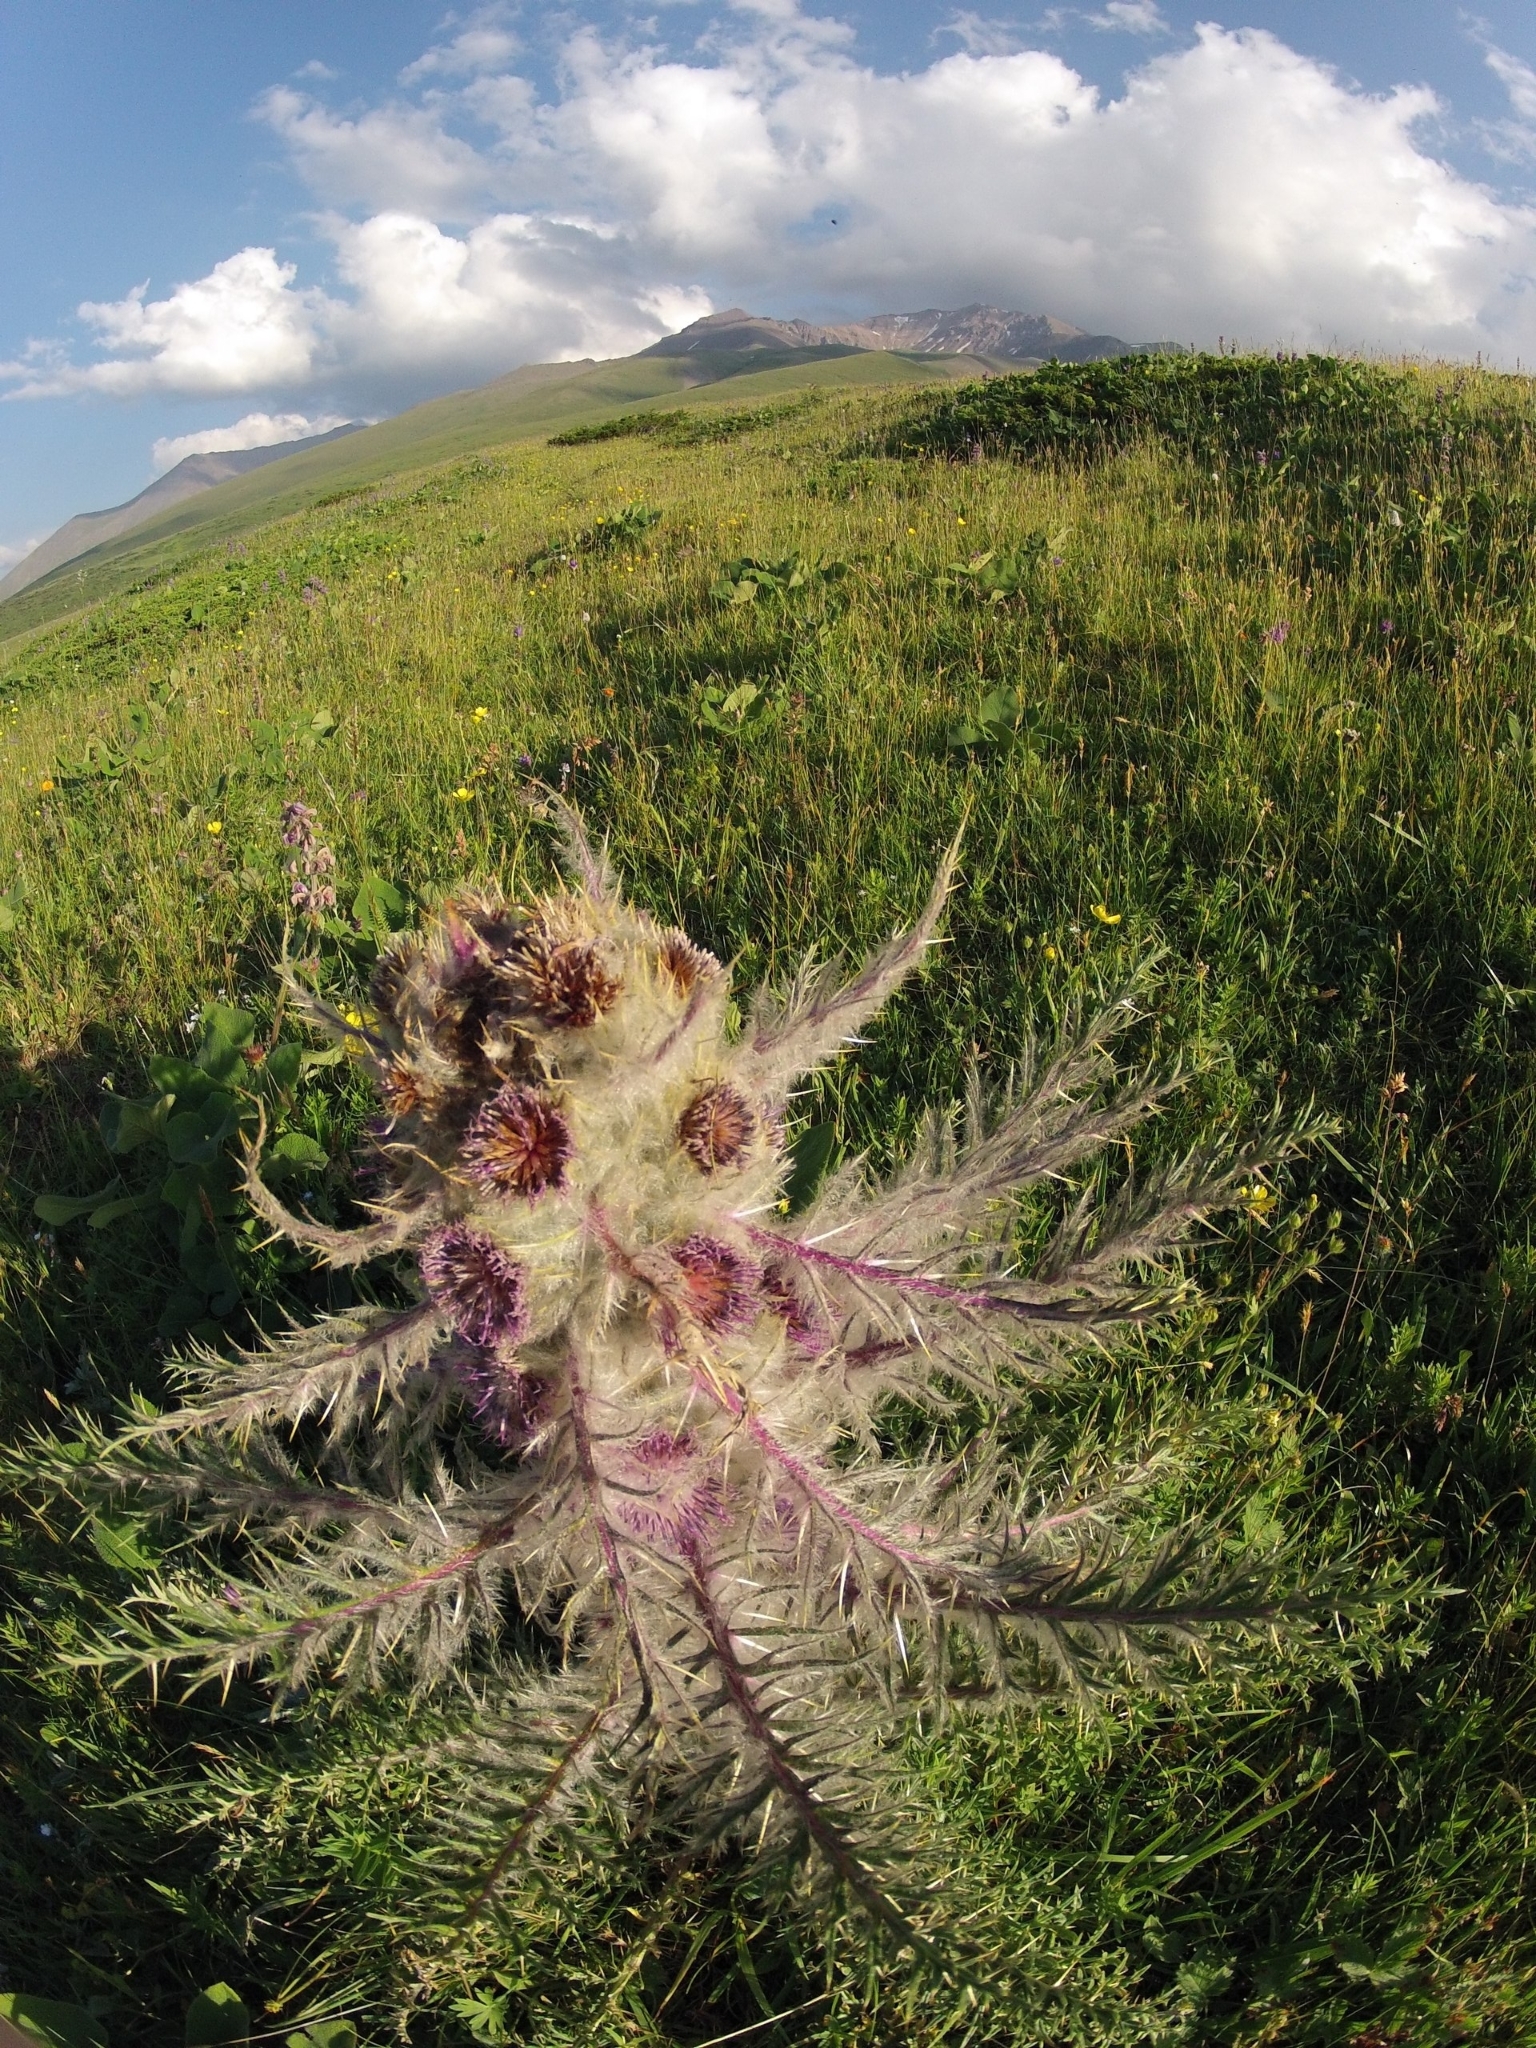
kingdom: Plantae
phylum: Tracheophyta
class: Magnoliopsida
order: Asterales
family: Asteraceae
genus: Arctium
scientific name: Arctium nidulans
